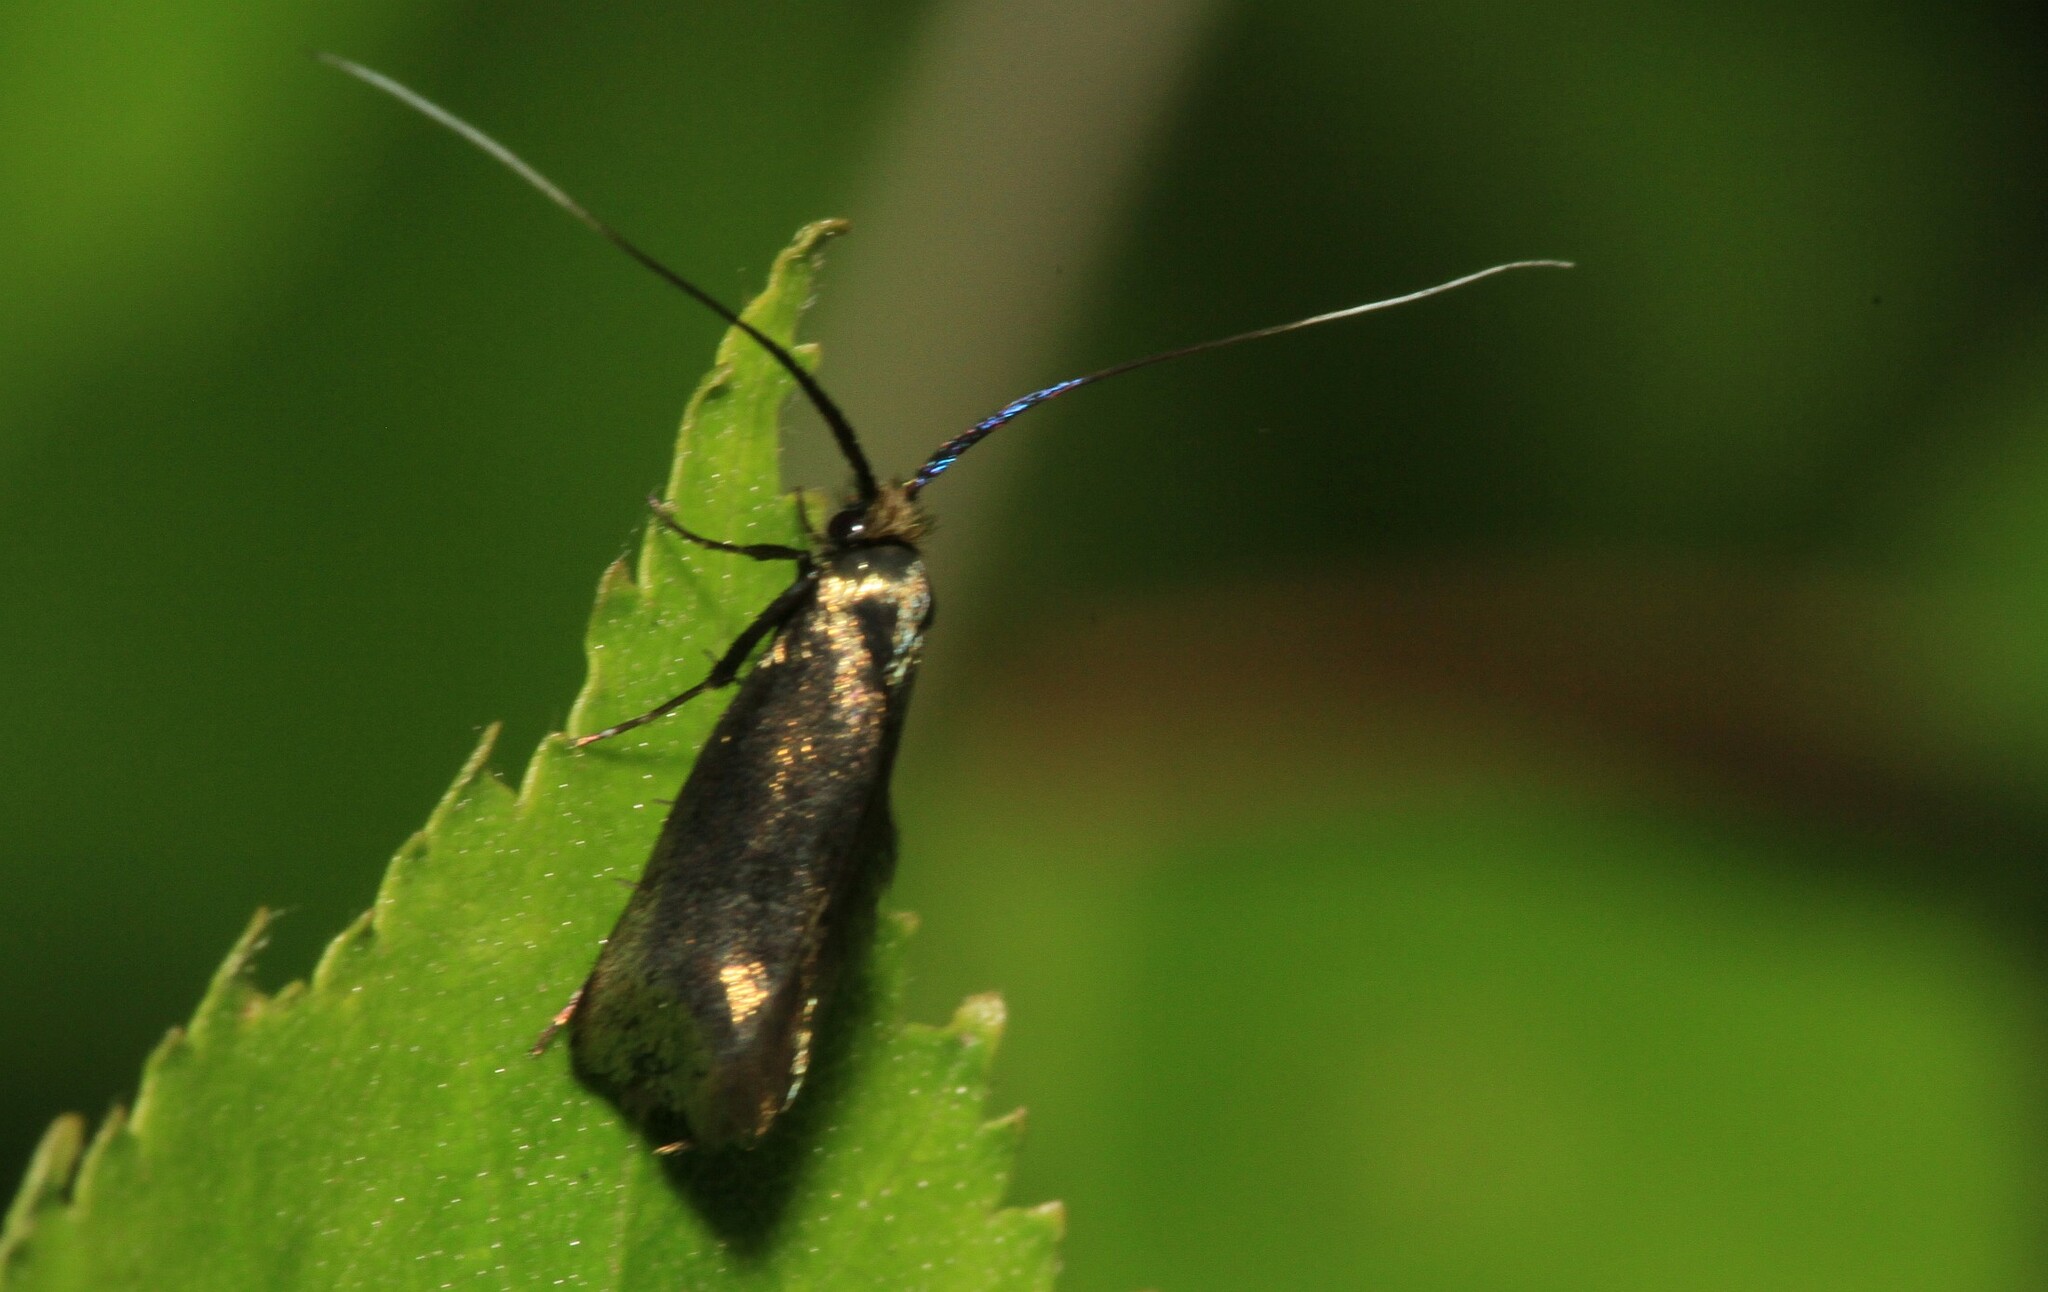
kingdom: Animalia
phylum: Arthropoda
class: Insecta
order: Lepidoptera
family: Adelidae
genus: Adela
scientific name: Adela viridella
